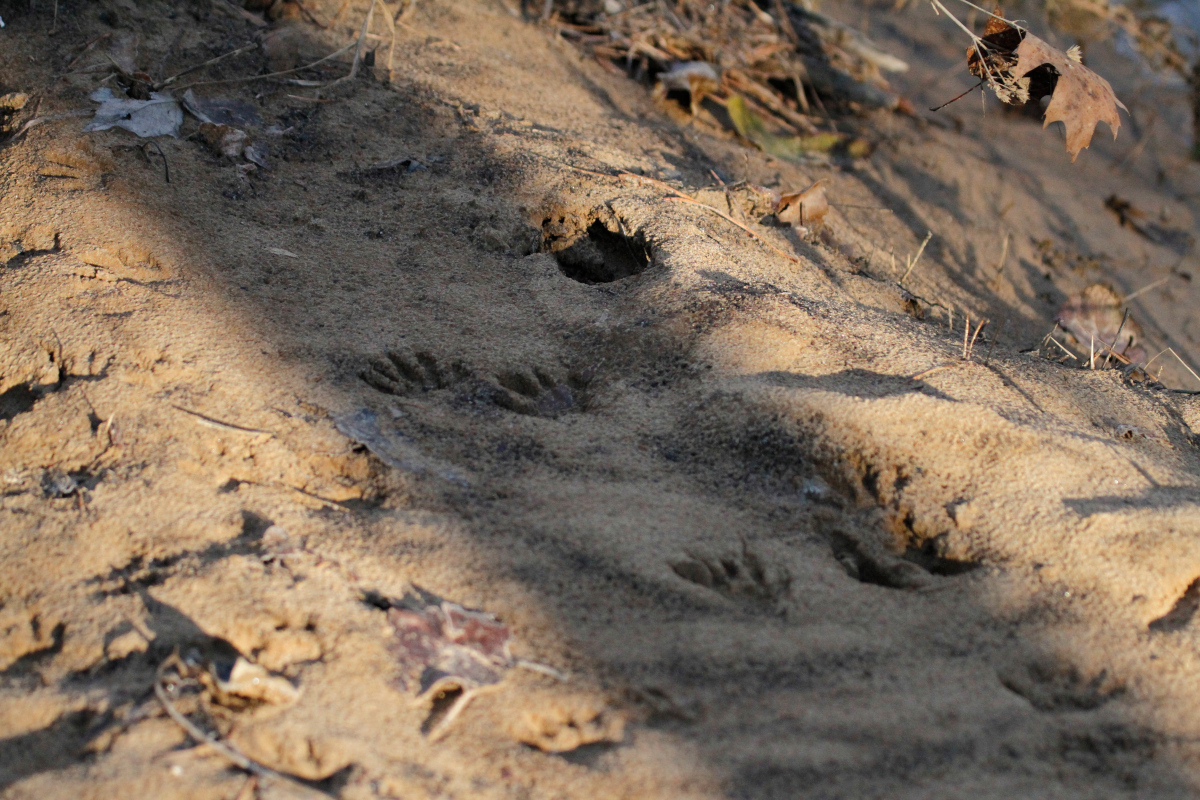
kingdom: Animalia
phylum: Chordata
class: Mammalia
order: Carnivora
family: Procyonidae
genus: Procyon
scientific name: Procyon lotor
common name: Raccoon
